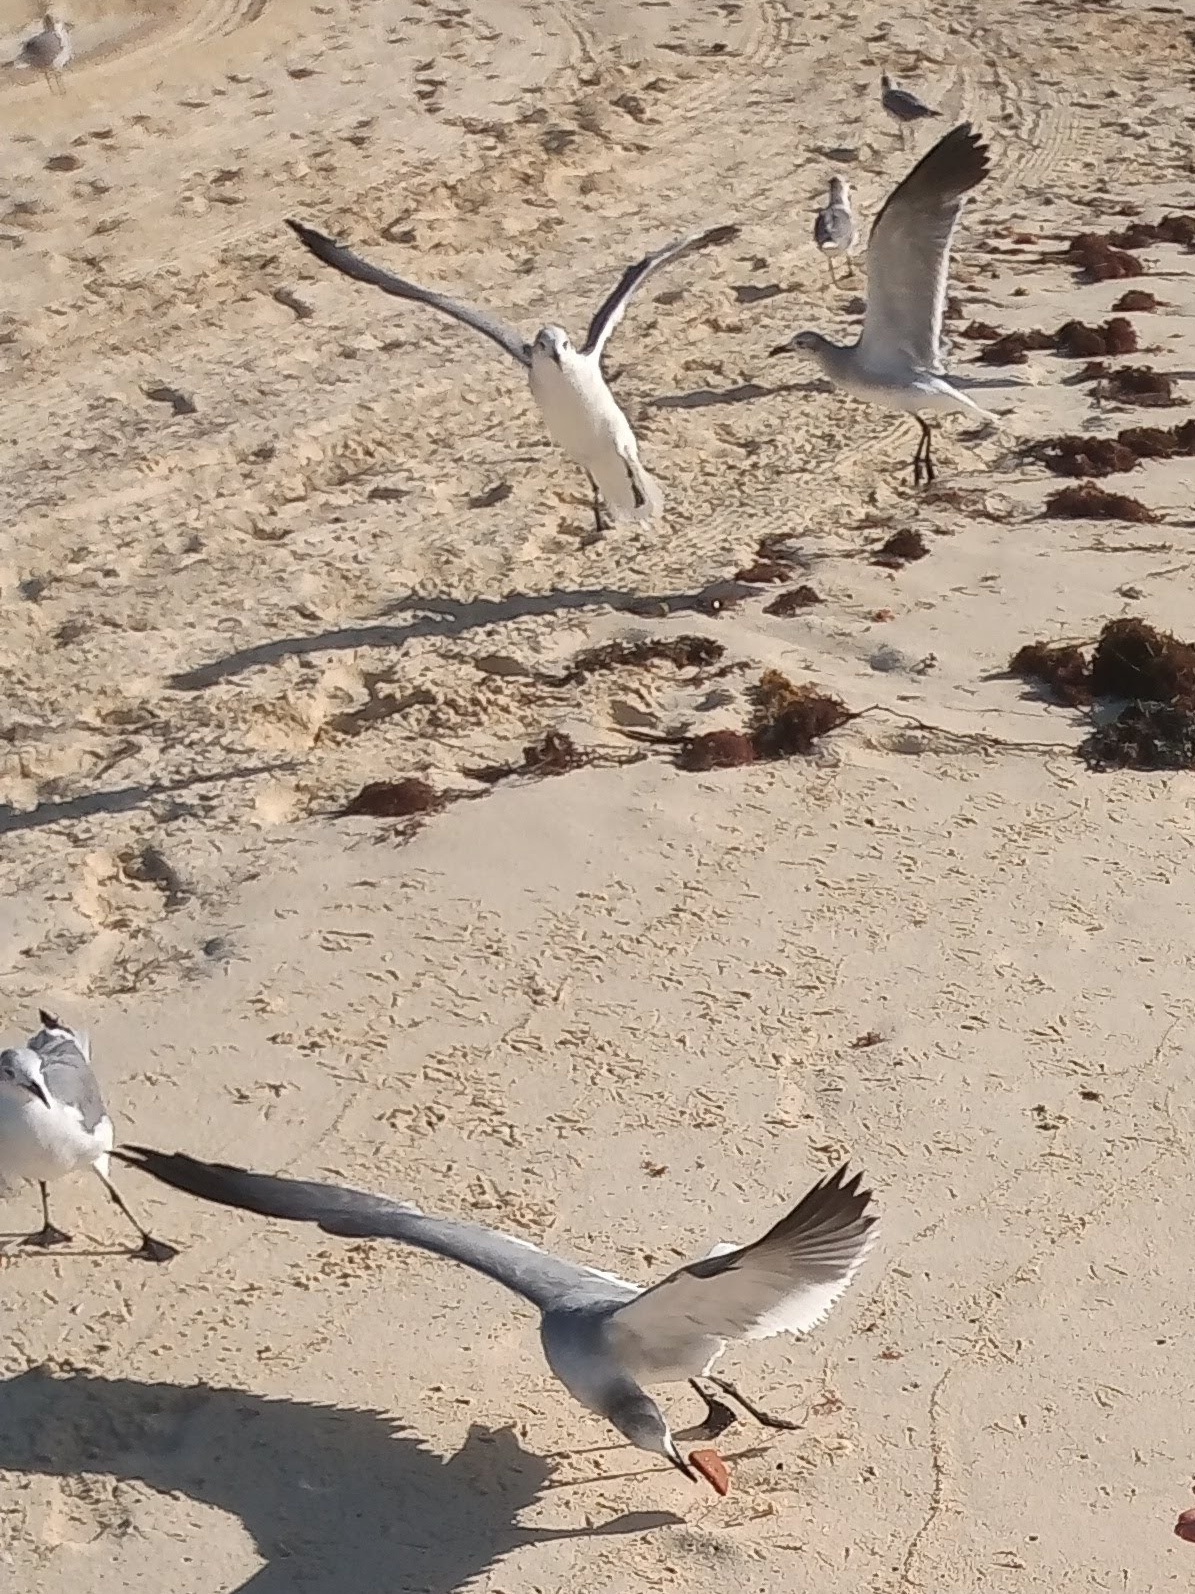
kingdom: Animalia
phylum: Chordata
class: Aves
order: Charadriiformes
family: Laridae
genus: Leucophaeus
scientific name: Leucophaeus atricilla
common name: Laughing gull
